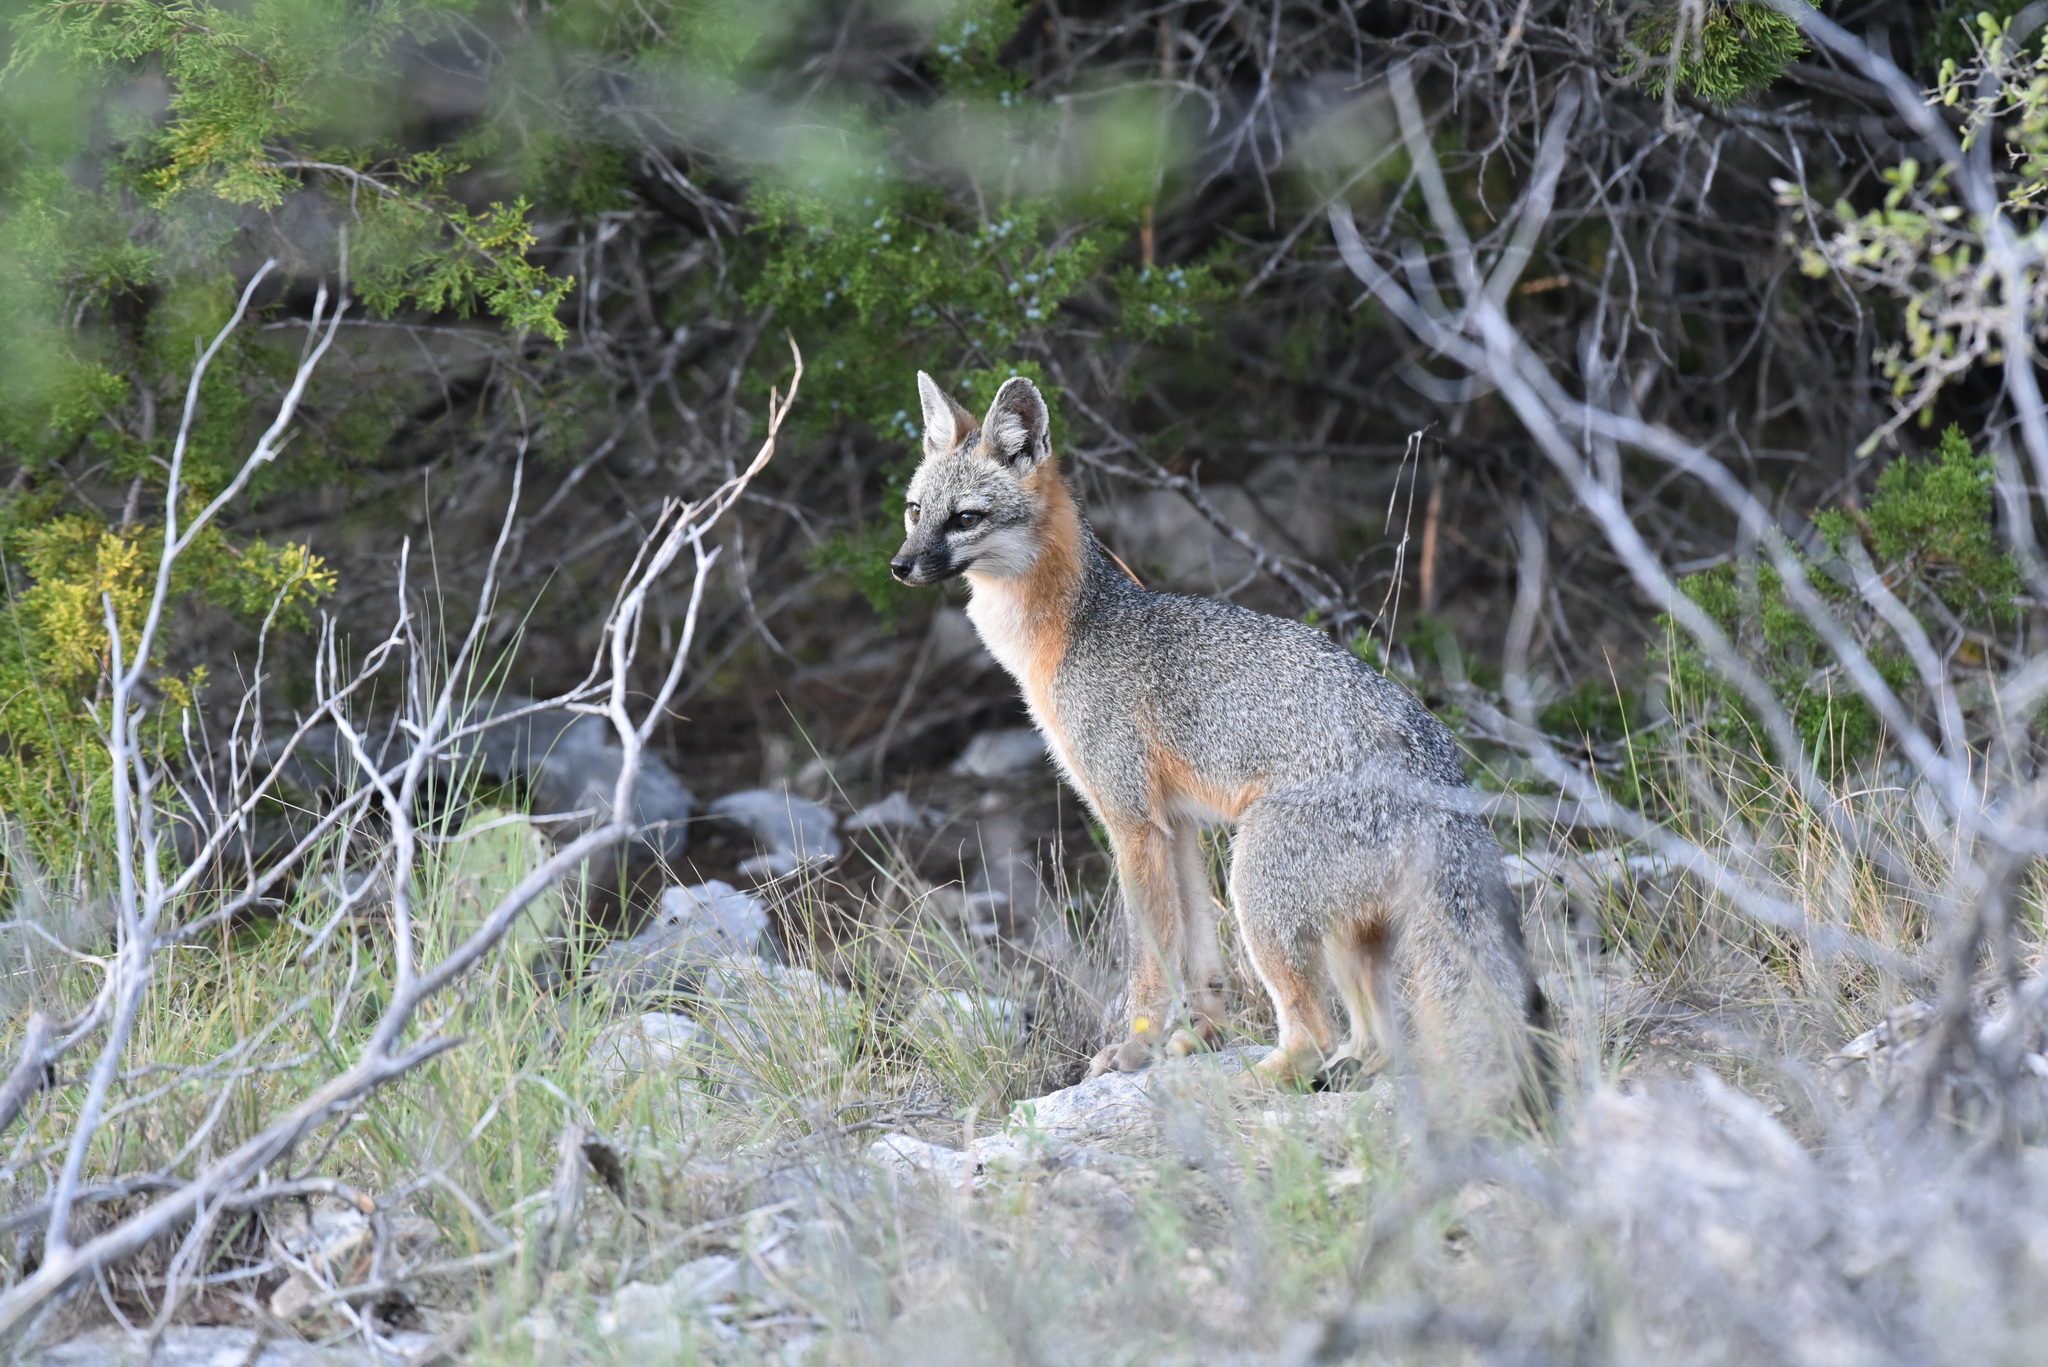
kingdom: Animalia
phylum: Chordata
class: Mammalia
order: Carnivora
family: Canidae
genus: Urocyon
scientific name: Urocyon cinereoargenteus
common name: Gray fox
